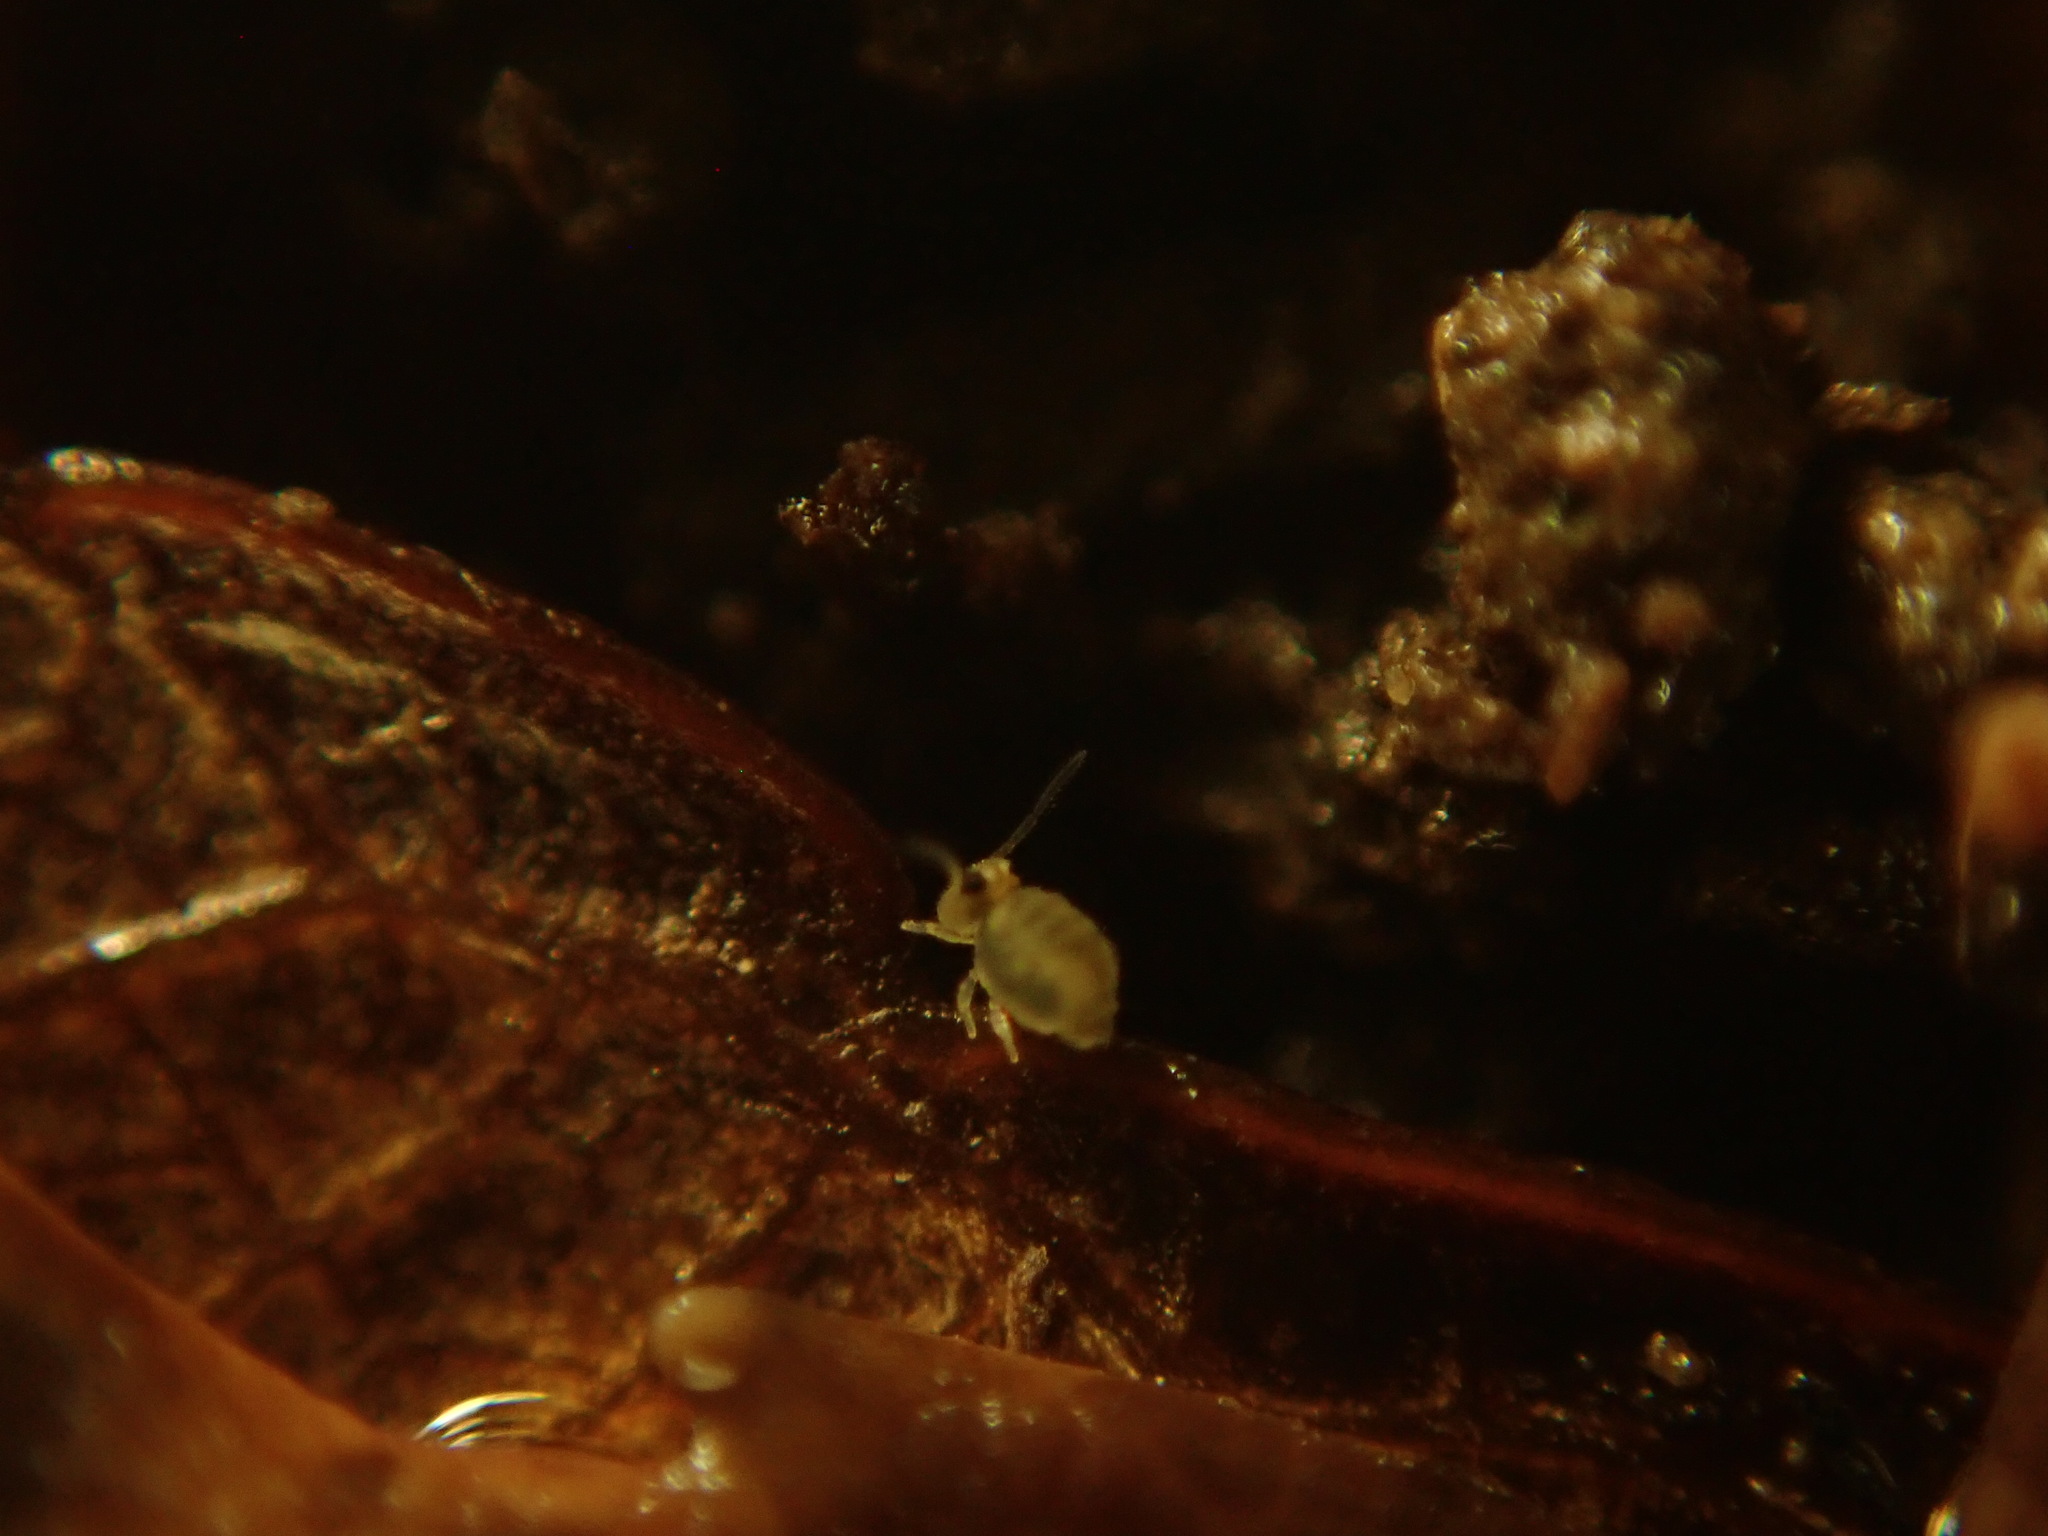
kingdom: Animalia
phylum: Arthropoda
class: Collembola
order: Symphypleona
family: Katiannidae
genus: Sminthurinus
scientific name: Sminthurinus henshawi
